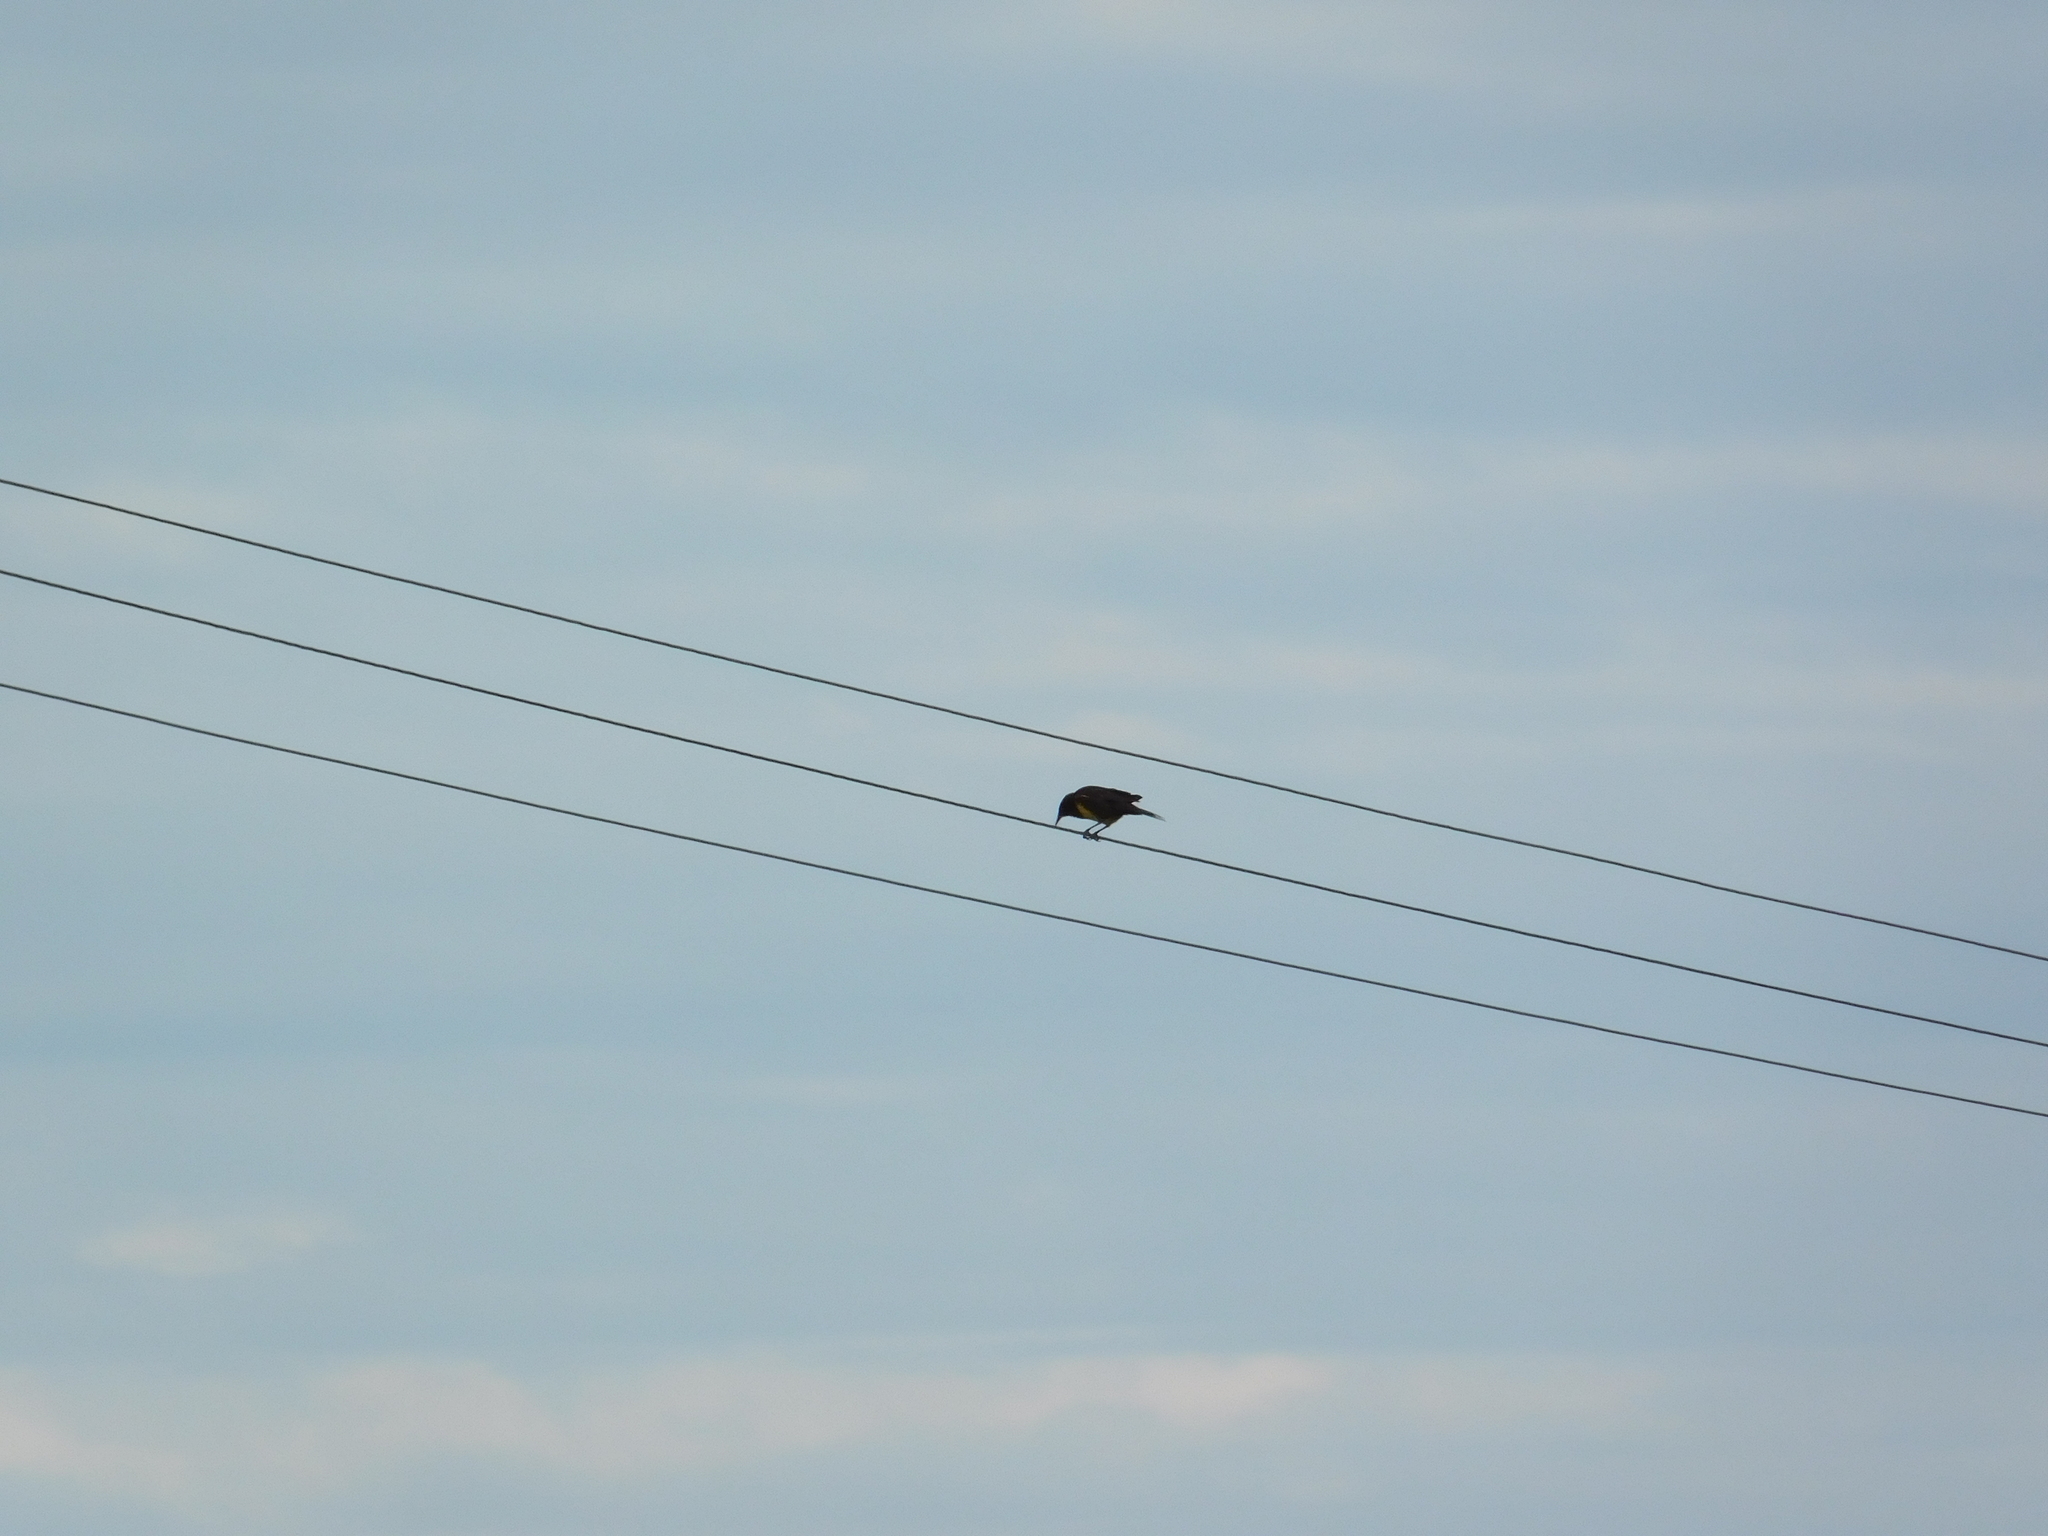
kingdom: Animalia
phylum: Chordata
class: Aves
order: Passeriformes
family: Icteridae
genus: Pseudoleistes
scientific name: Pseudoleistes virescens
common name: Brown-and-yellow marshbird
